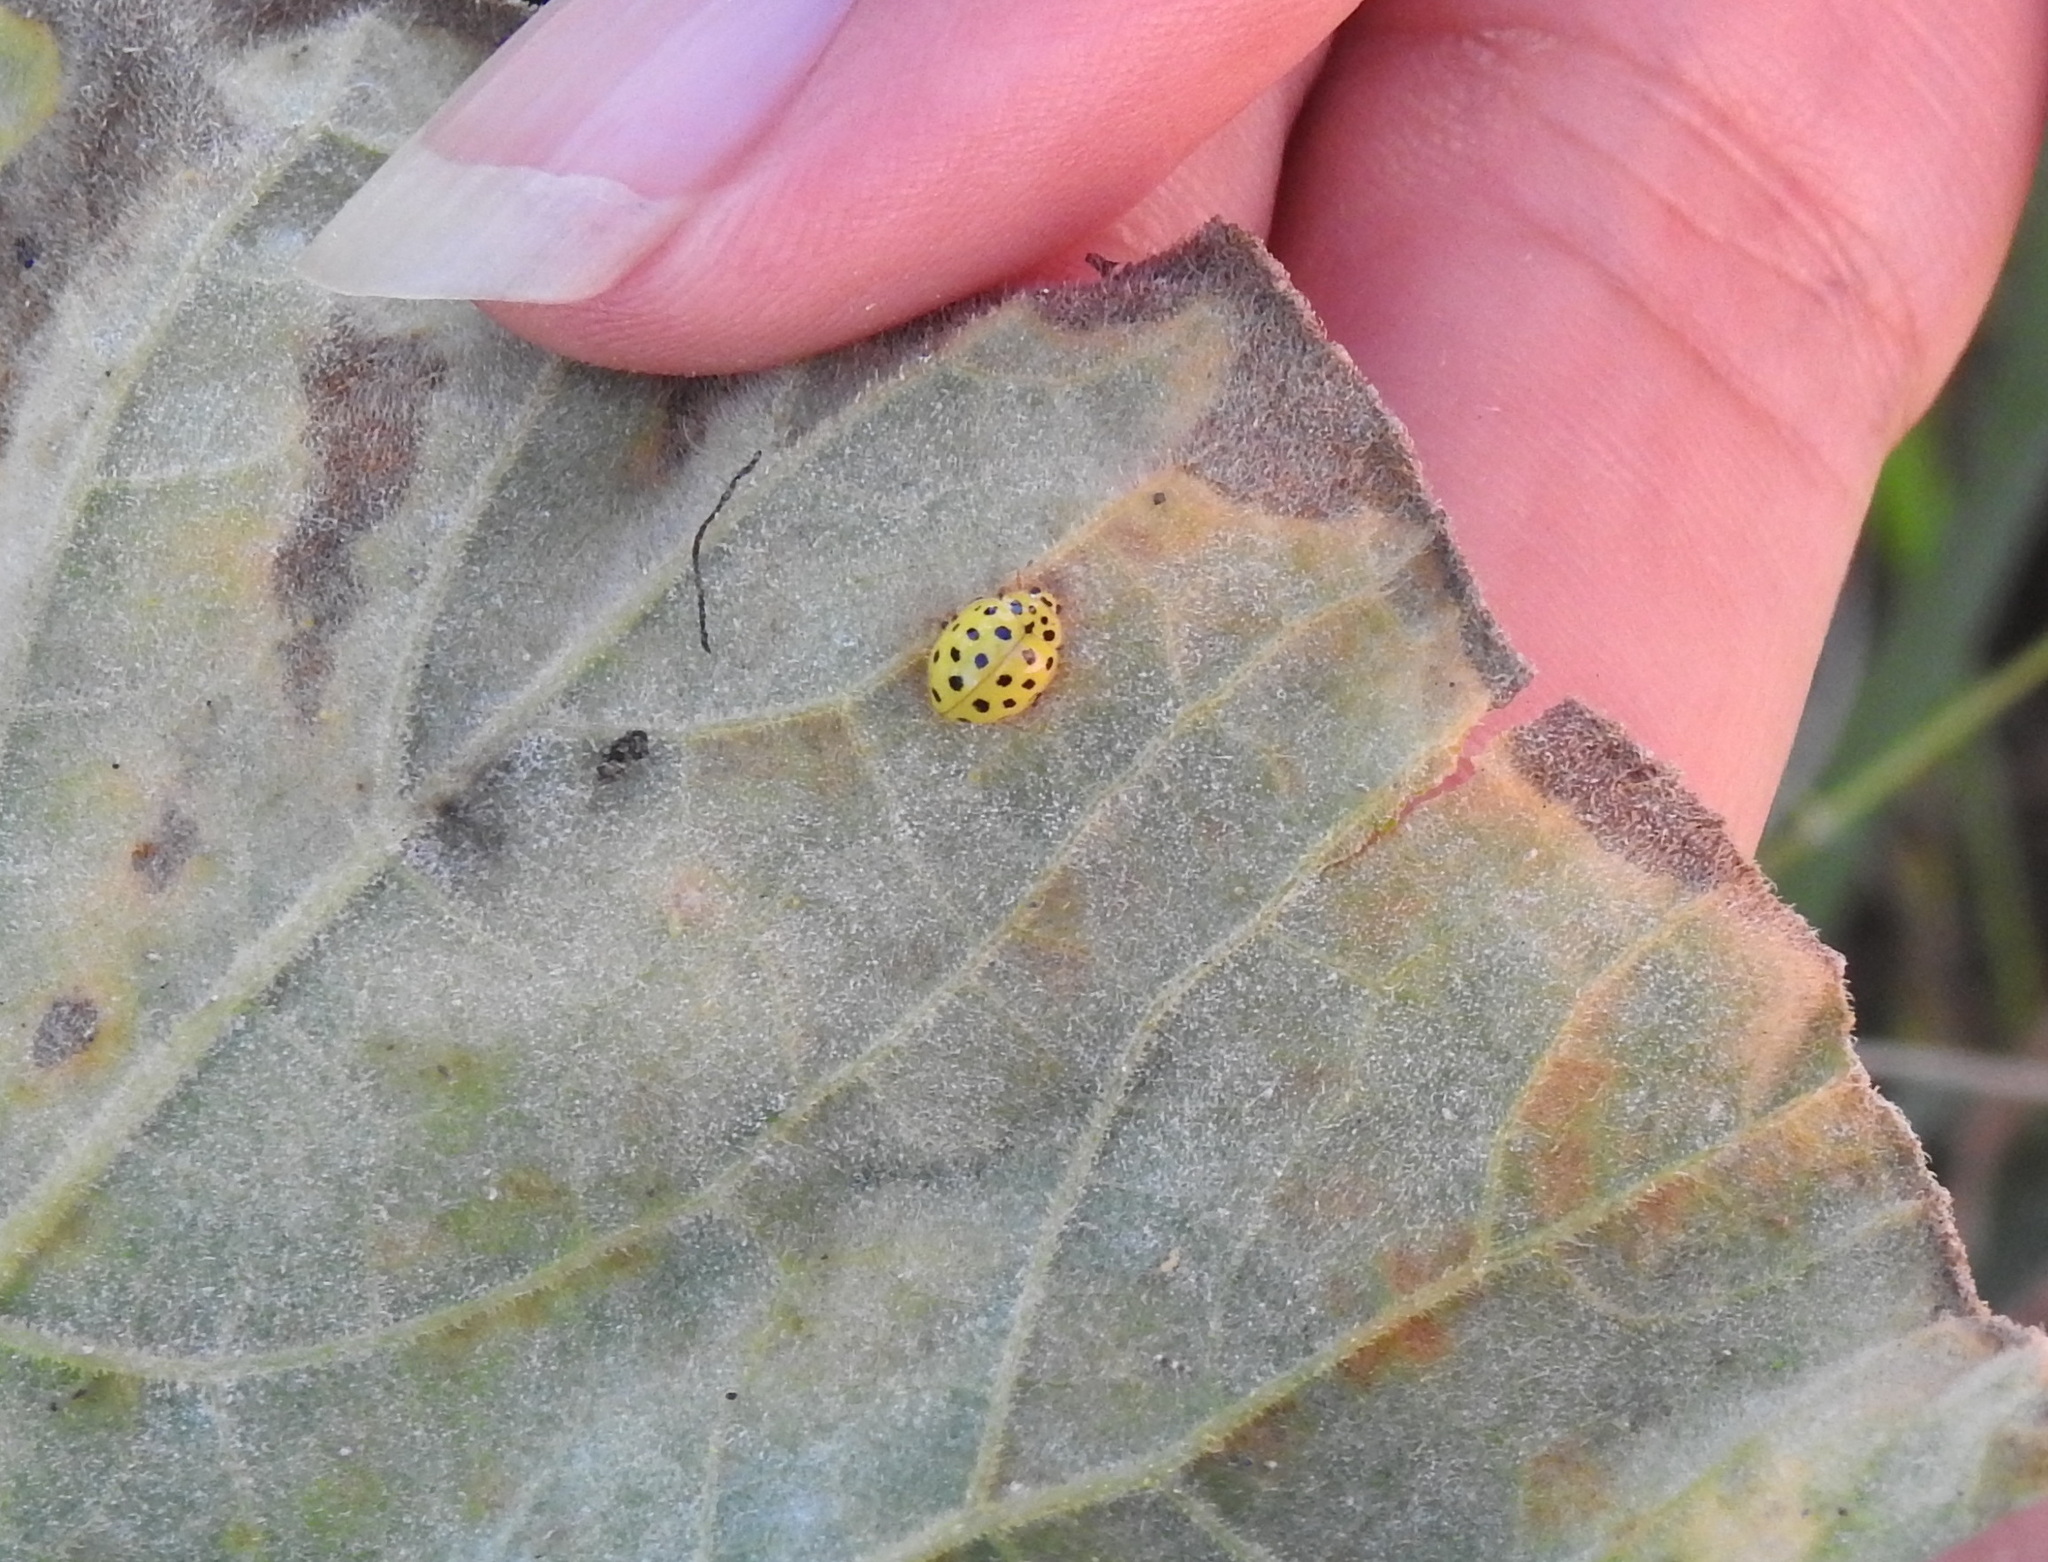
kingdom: Animalia
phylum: Arthropoda
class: Insecta
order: Coleoptera
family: Coccinellidae
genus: Psyllobora
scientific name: Psyllobora vigintiduopunctata
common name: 22-spot ladybird
